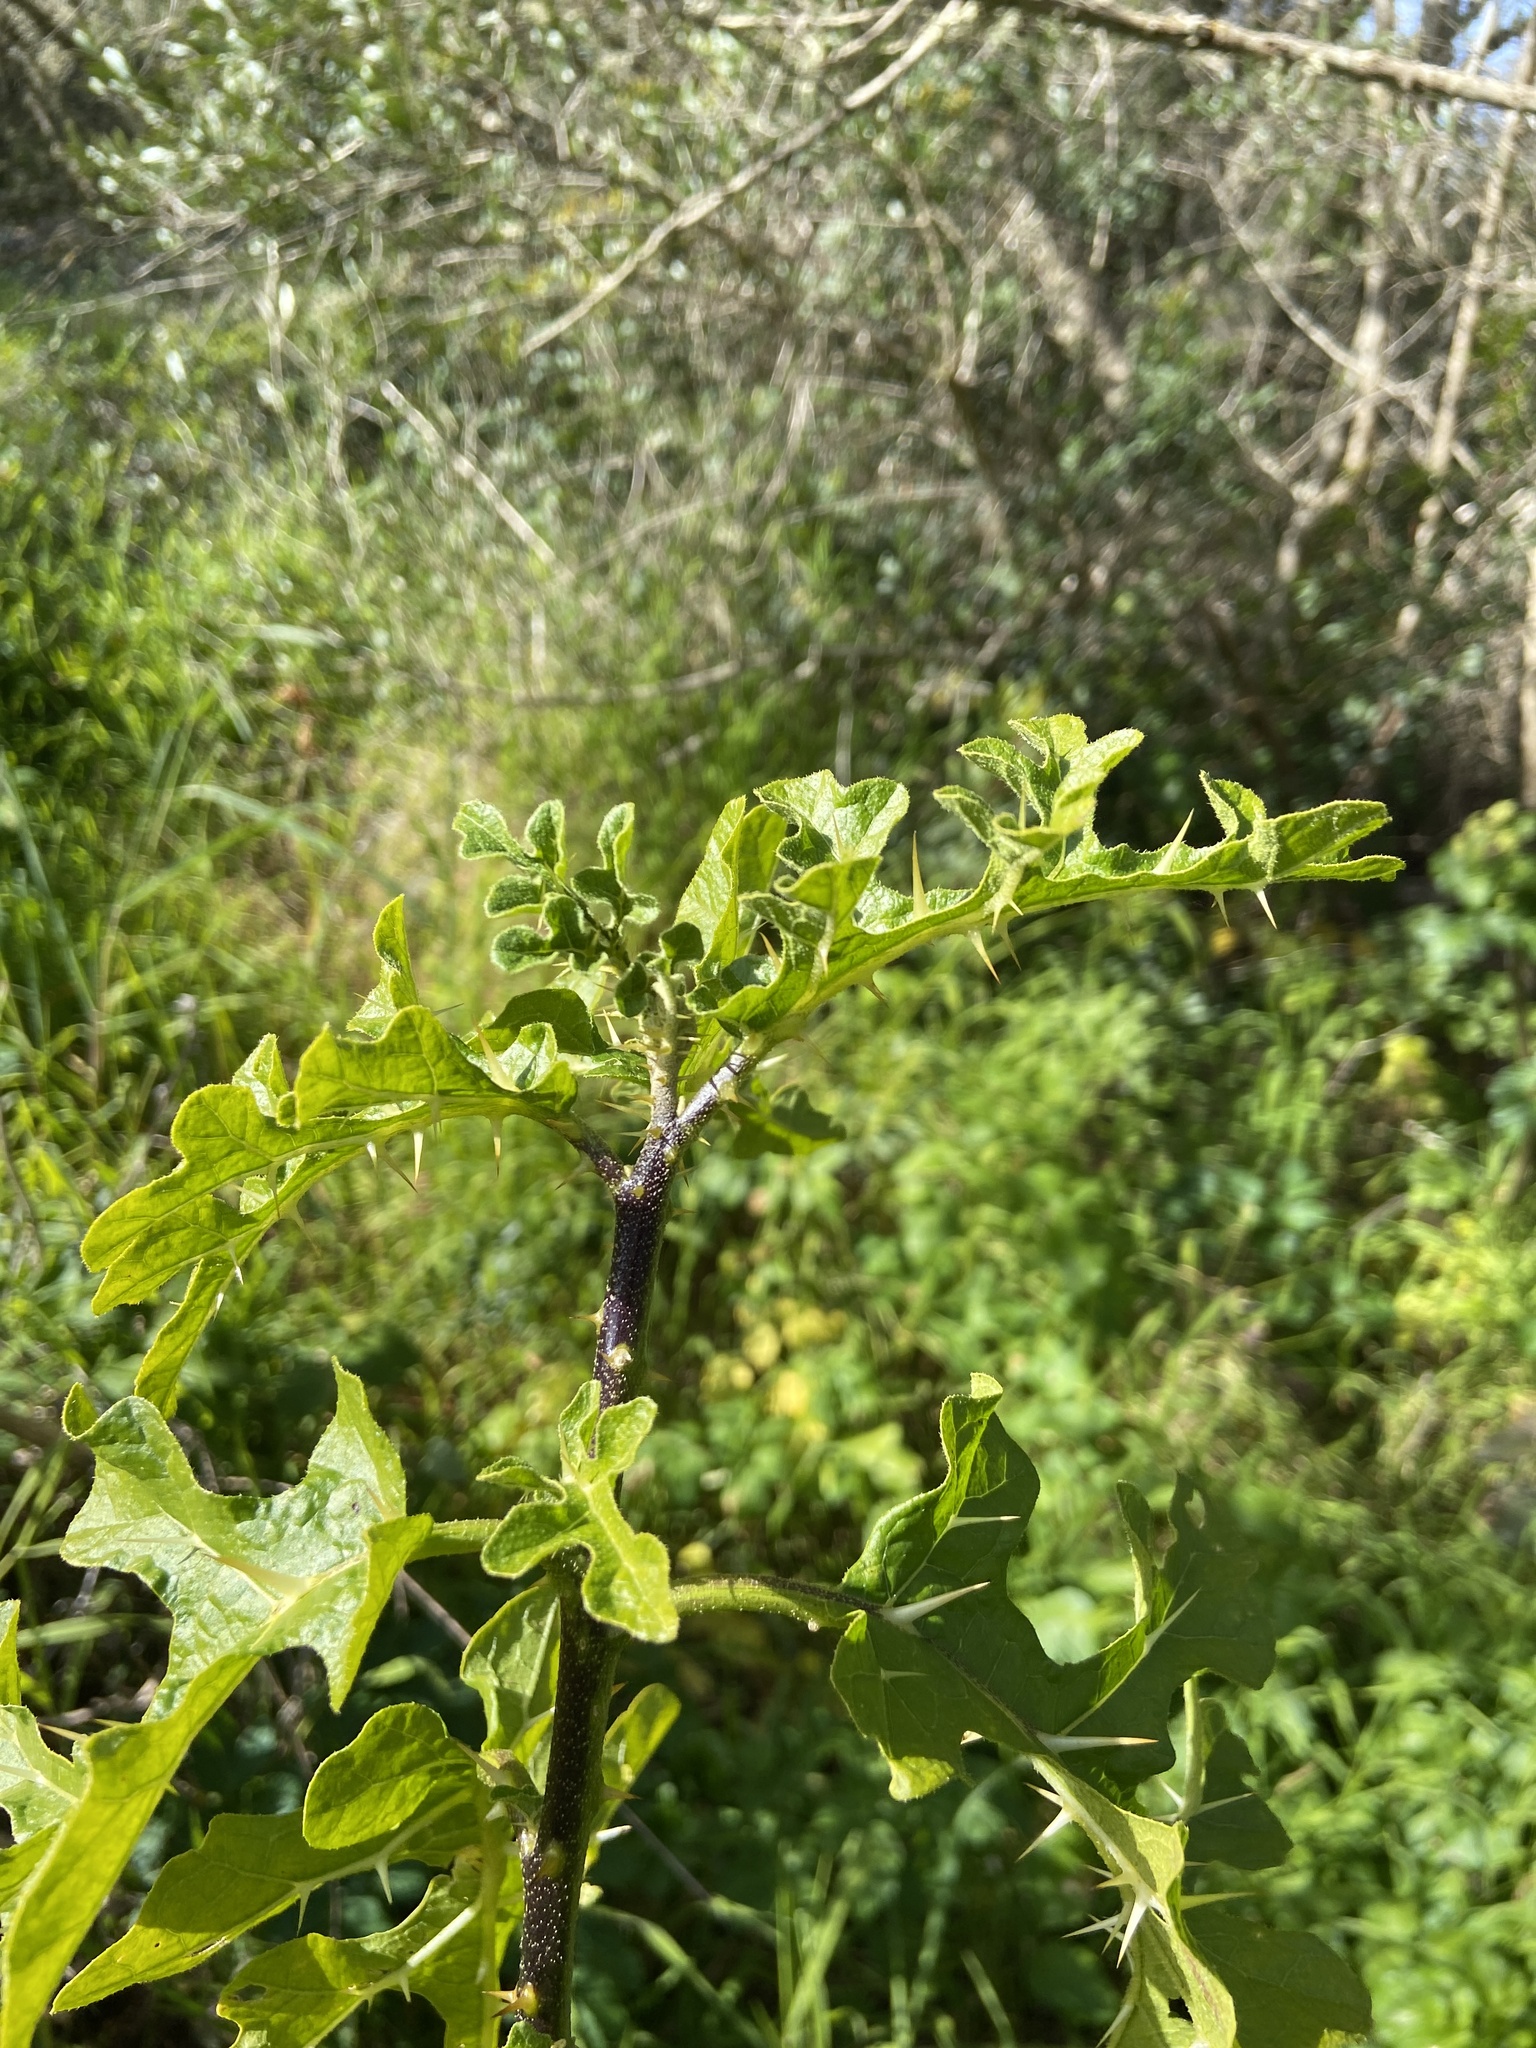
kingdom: Plantae
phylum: Tracheophyta
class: Magnoliopsida
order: Solanales
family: Solanaceae
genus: Solanum
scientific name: Solanum linnaeanum
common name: Nightshade
